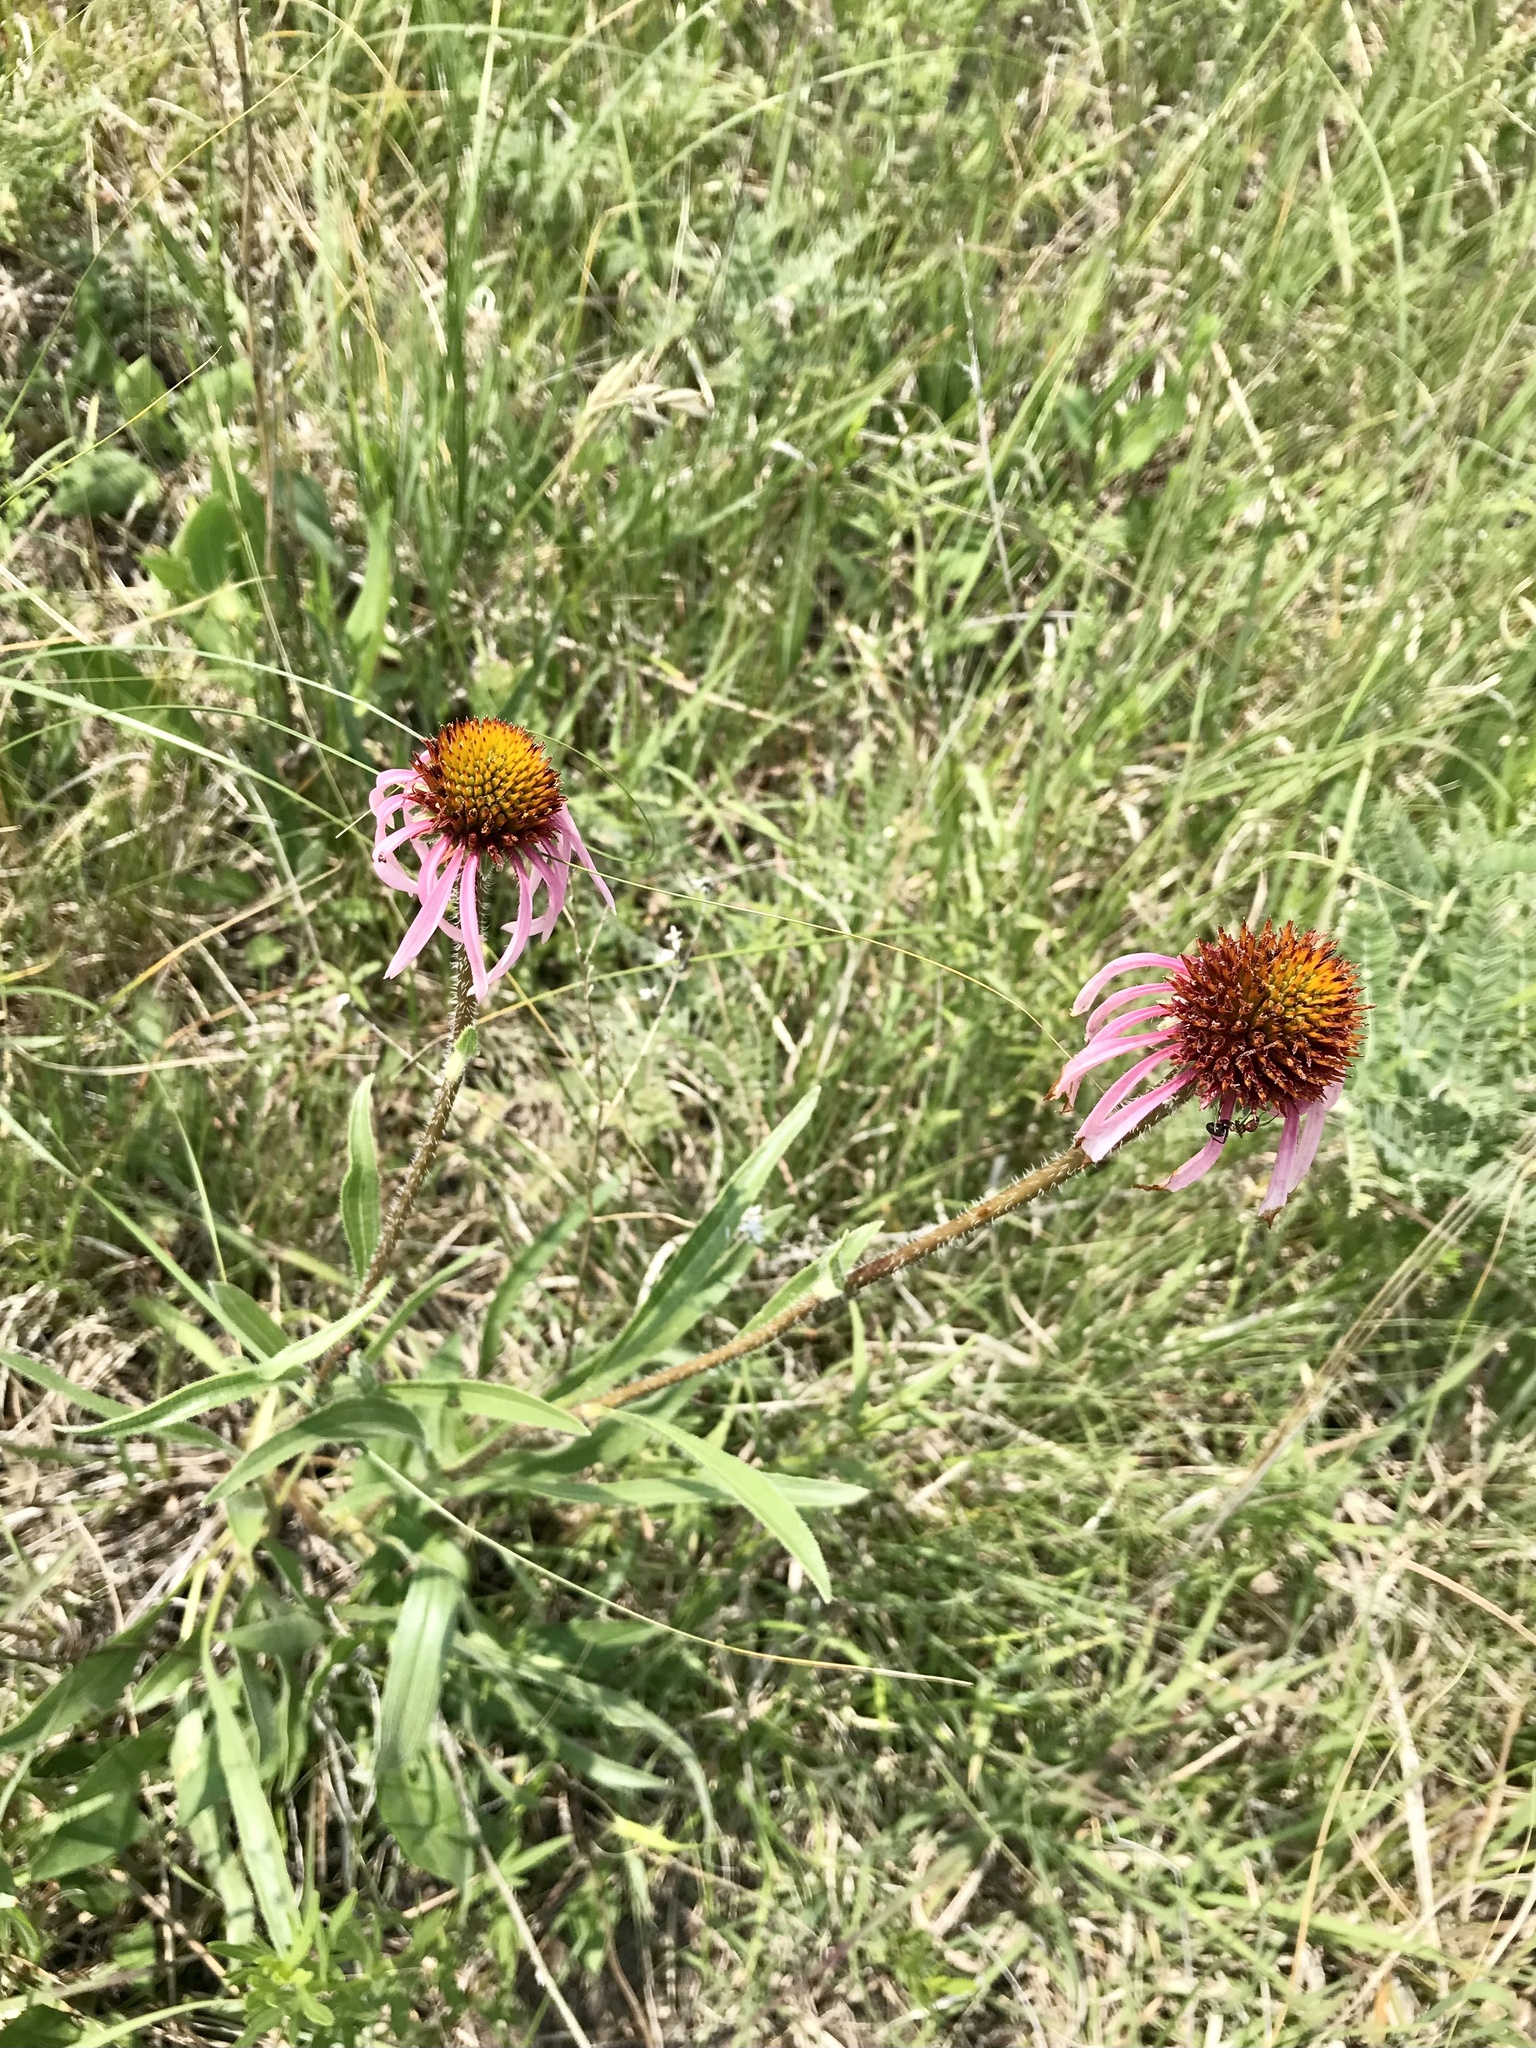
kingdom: Plantae
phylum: Tracheophyta
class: Magnoliopsida
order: Asterales
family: Asteraceae
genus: Echinacea
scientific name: Echinacea angustifolia
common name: Black-sampson echinacea
